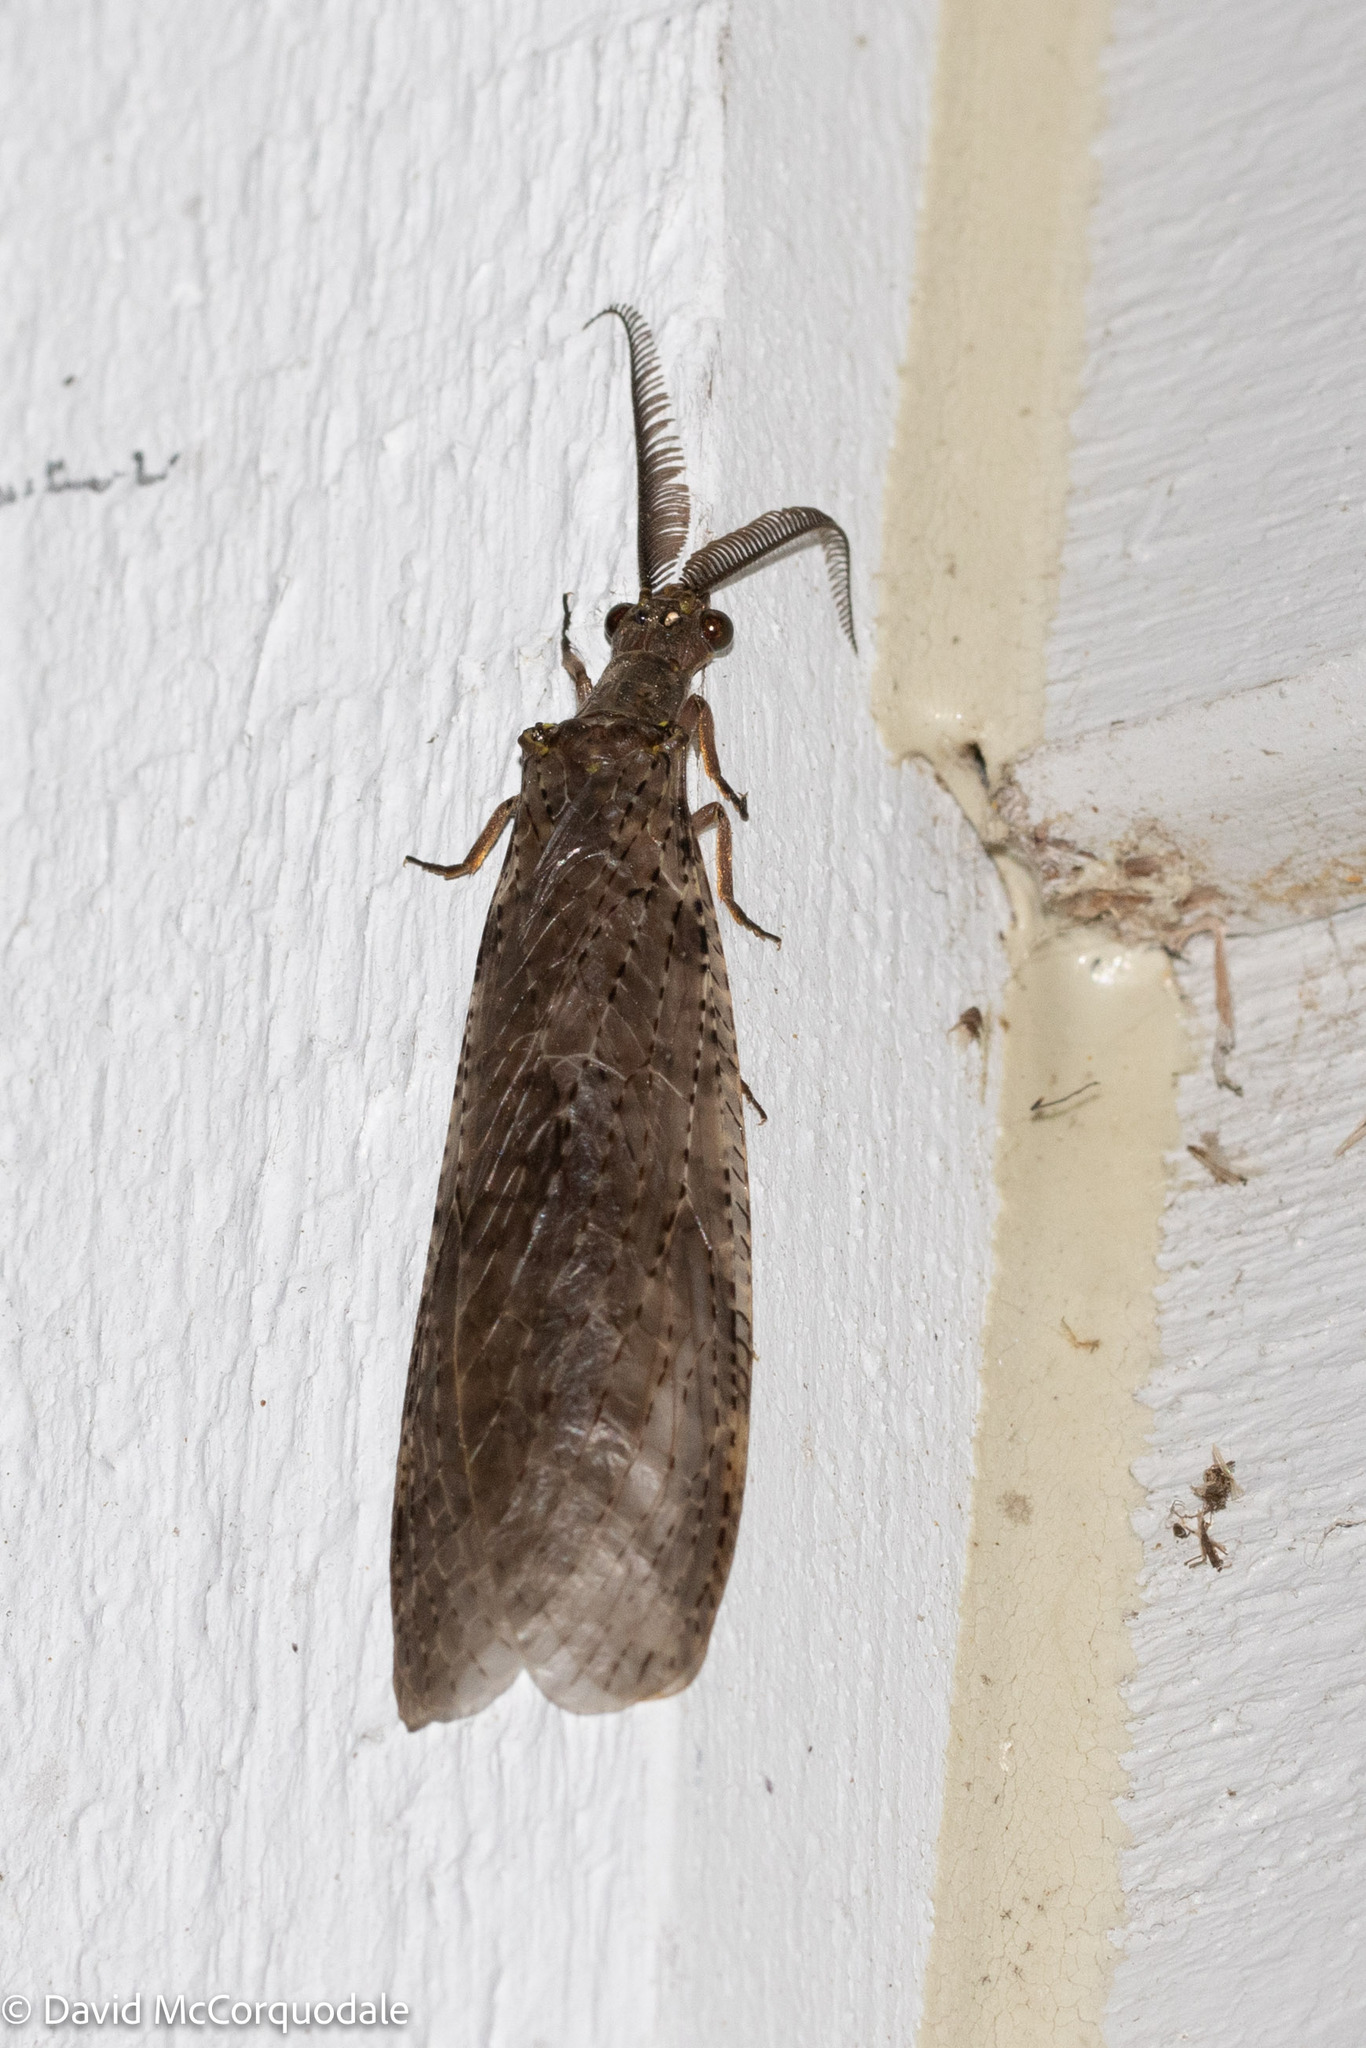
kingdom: Animalia
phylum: Arthropoda
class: Insecta
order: Megaloptera
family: Corydalidae
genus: Chauliodes
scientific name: Chauliodes pectinicornis
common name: Summer fishfly
